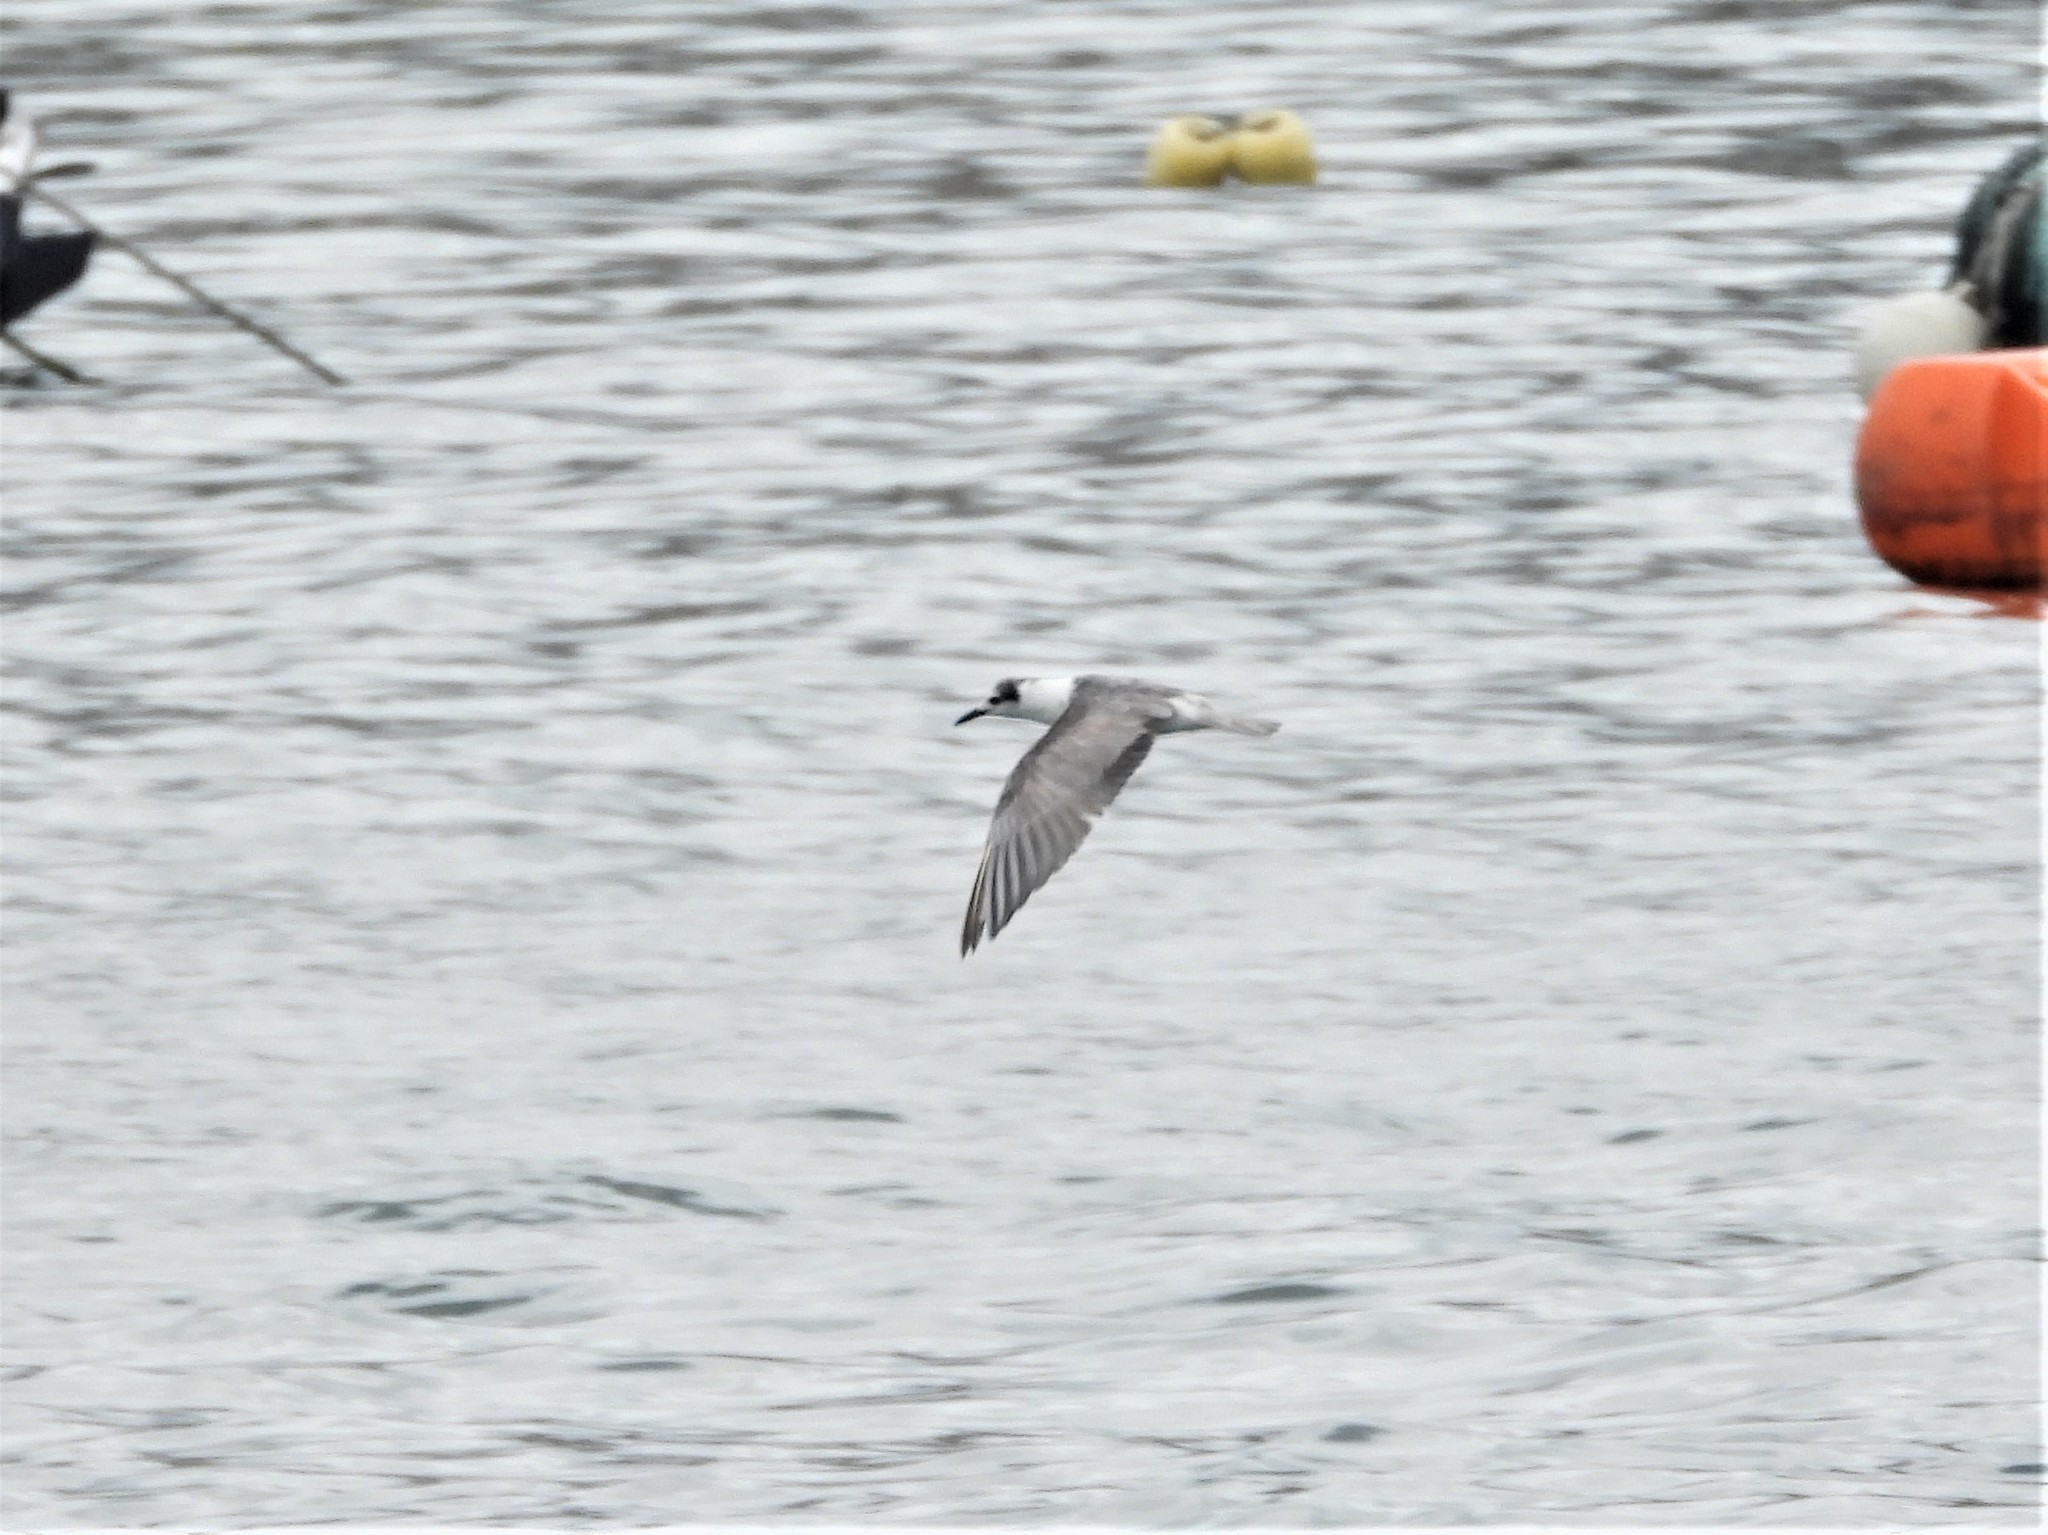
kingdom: Animalia
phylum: Chordata
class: Aves
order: Charadriiformes
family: Laridae
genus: Chlidonias
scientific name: Chlidonias hybrida
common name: Whiskered tern
